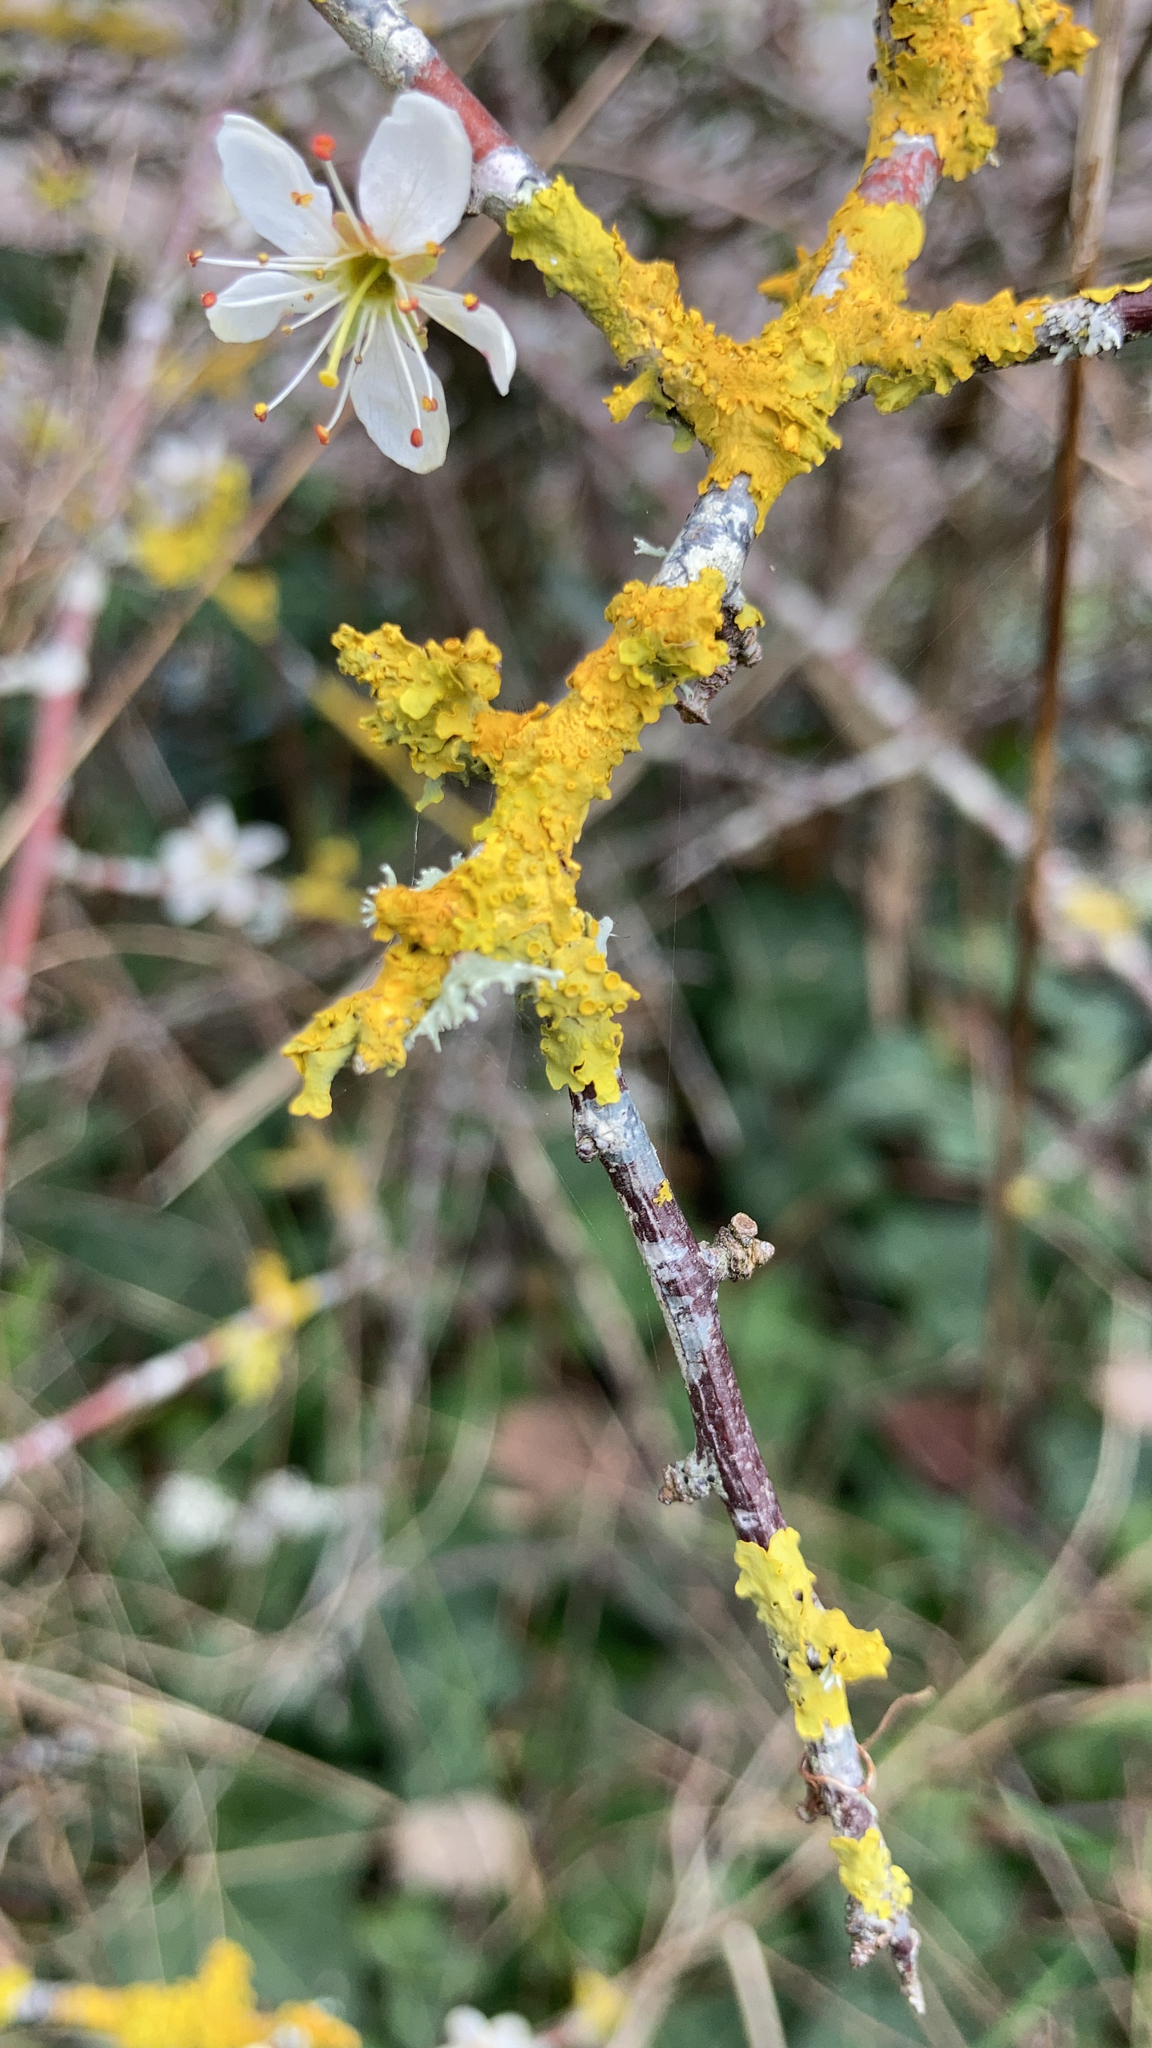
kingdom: Fungi
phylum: Ascomycota
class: Lecanoromycetes
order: Teloschistales
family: Teloschistaceae
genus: Xanthoria
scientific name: Xanthoria parietina
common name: Common orange lichen
